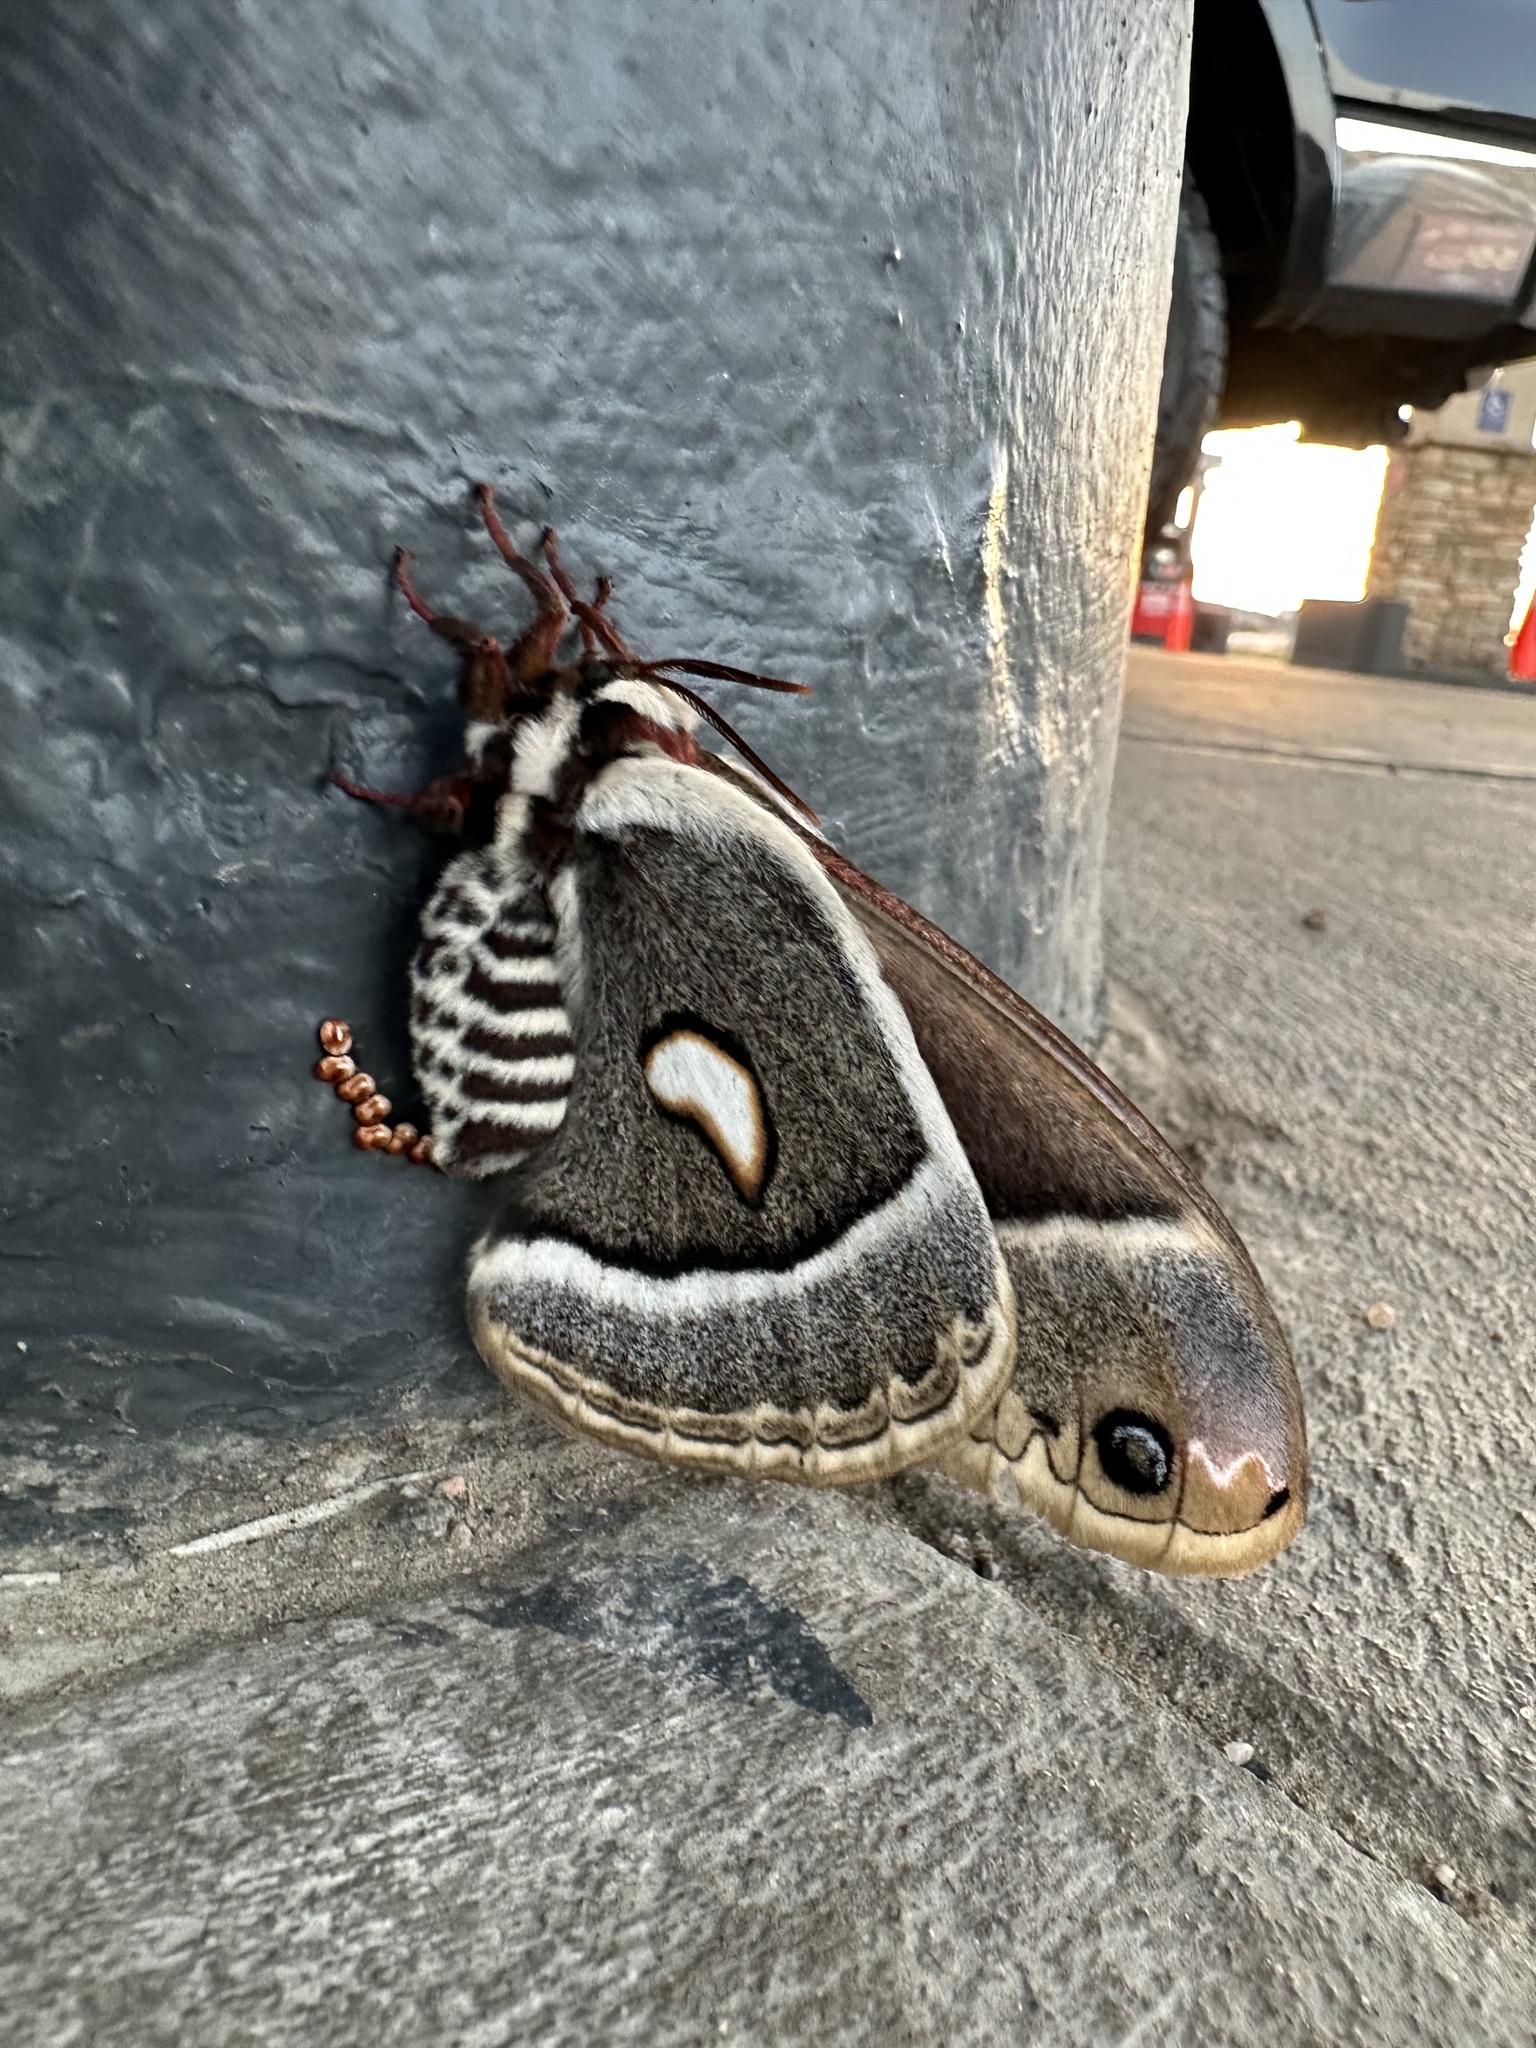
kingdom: Animalia
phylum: Arthropoda
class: Insecta
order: Lepidoptera
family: Saturniidae
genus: Hyalophora
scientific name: Hyalophora gloveri
